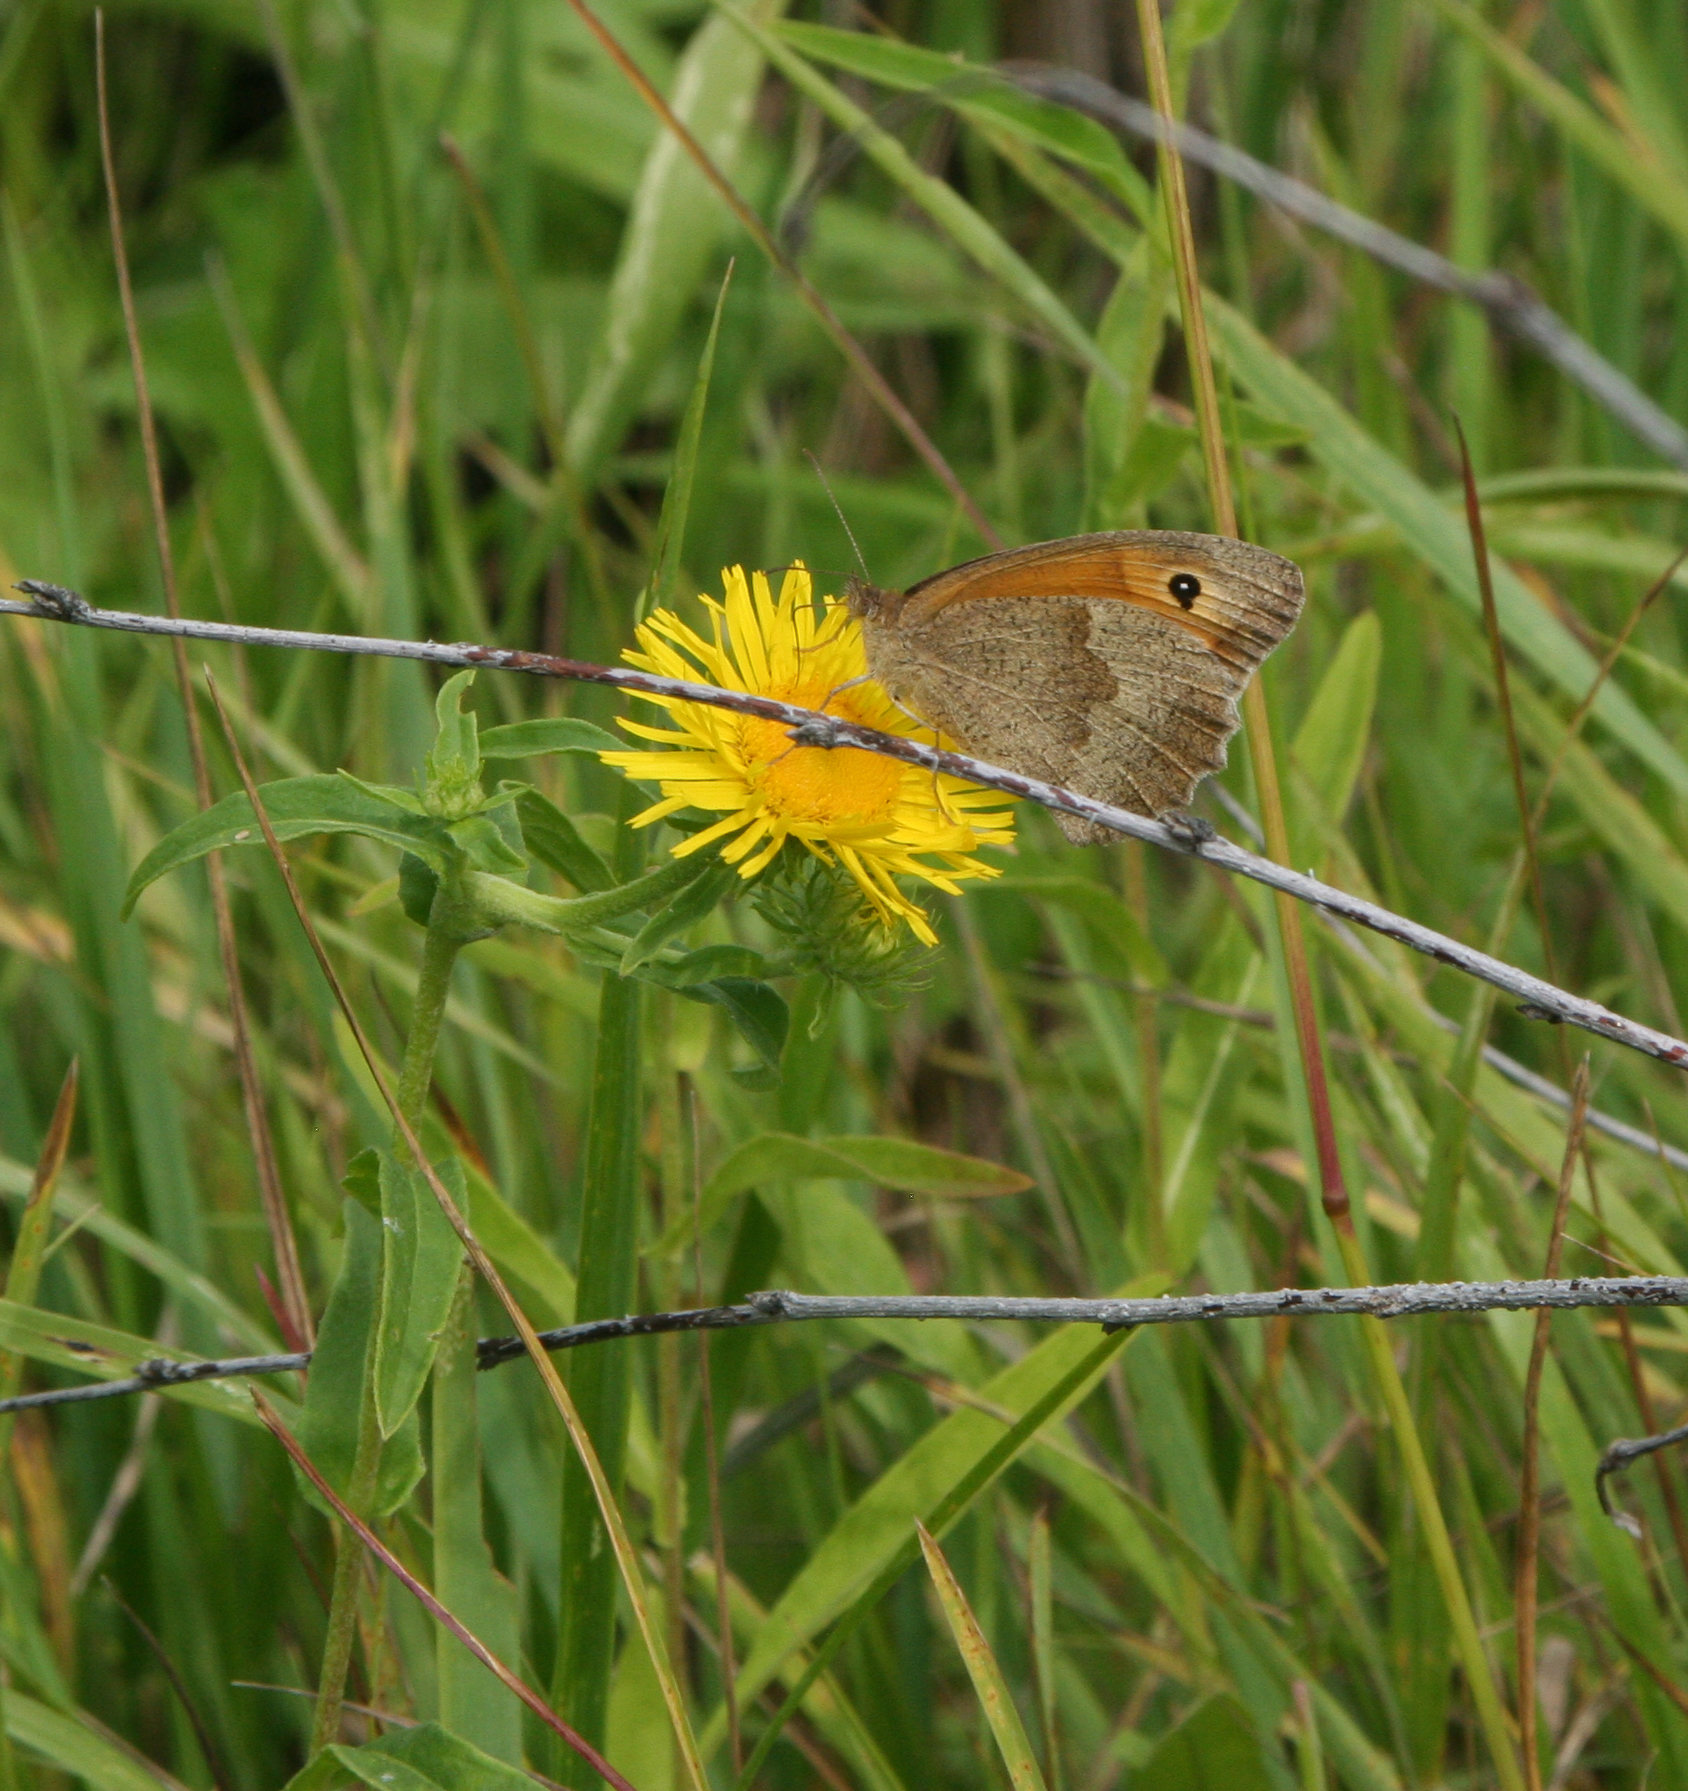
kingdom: Animalia
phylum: Arthropoda
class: Insecta
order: Lepidoptera
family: Nymphalidae
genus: Maniola
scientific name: Maniola jurtina
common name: Meadow brown
